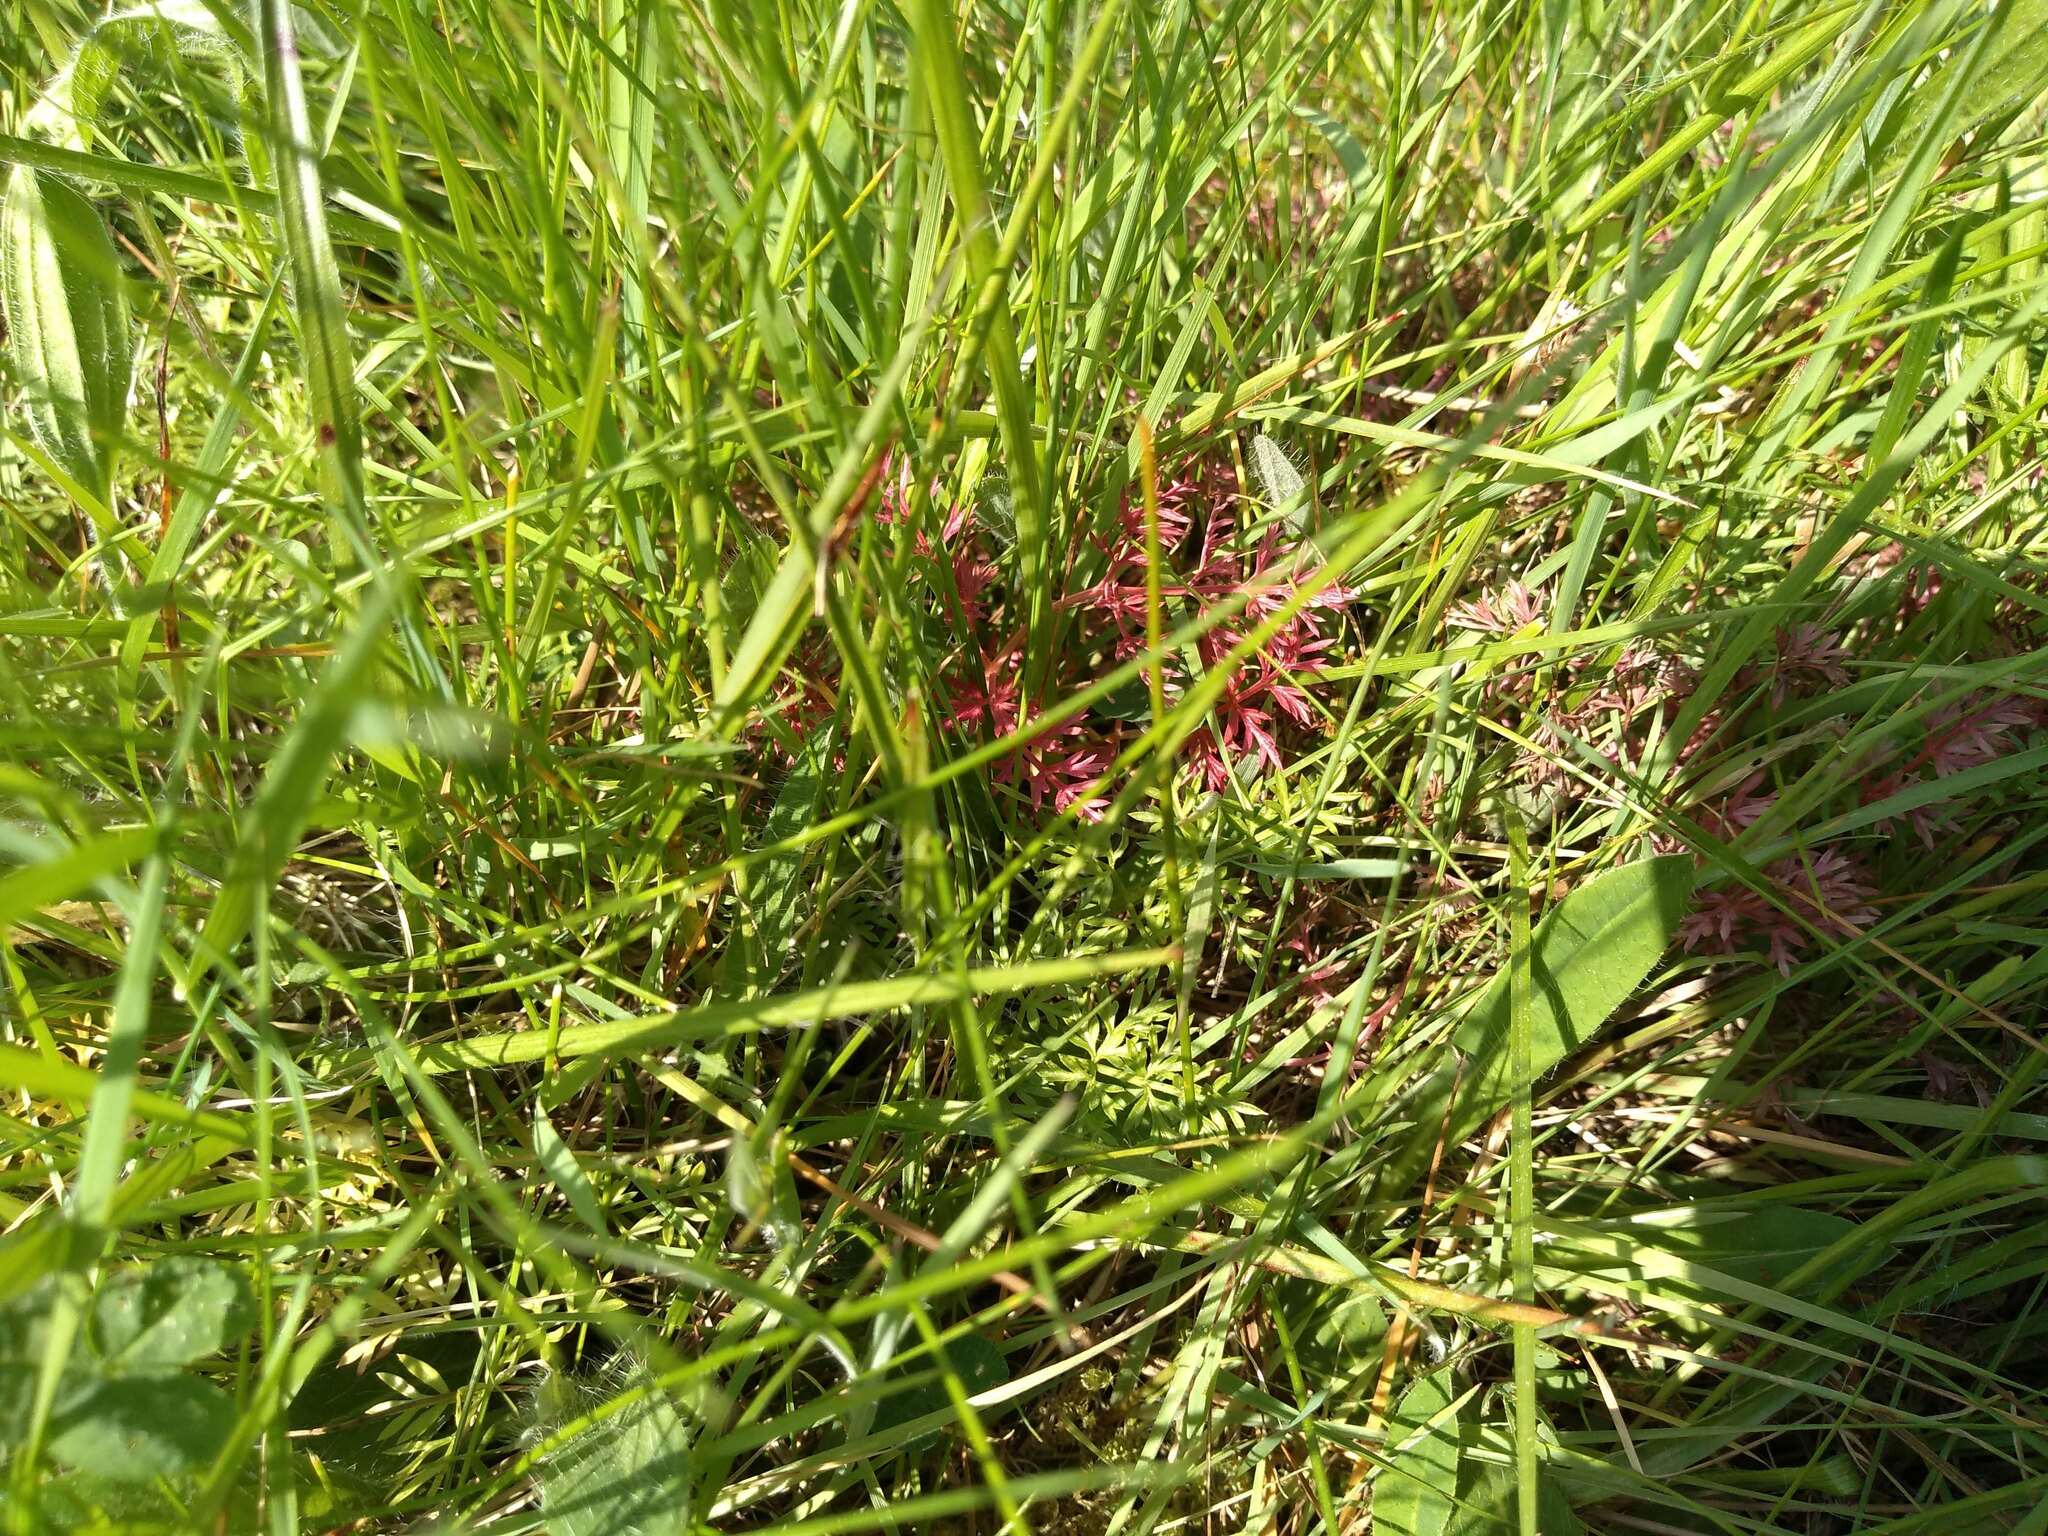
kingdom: Plantae
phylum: Tracheophyta
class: Magnoliopsida
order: Apiales
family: Apiaceae
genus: Conopodium
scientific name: Conopodium majus
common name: Pignut
